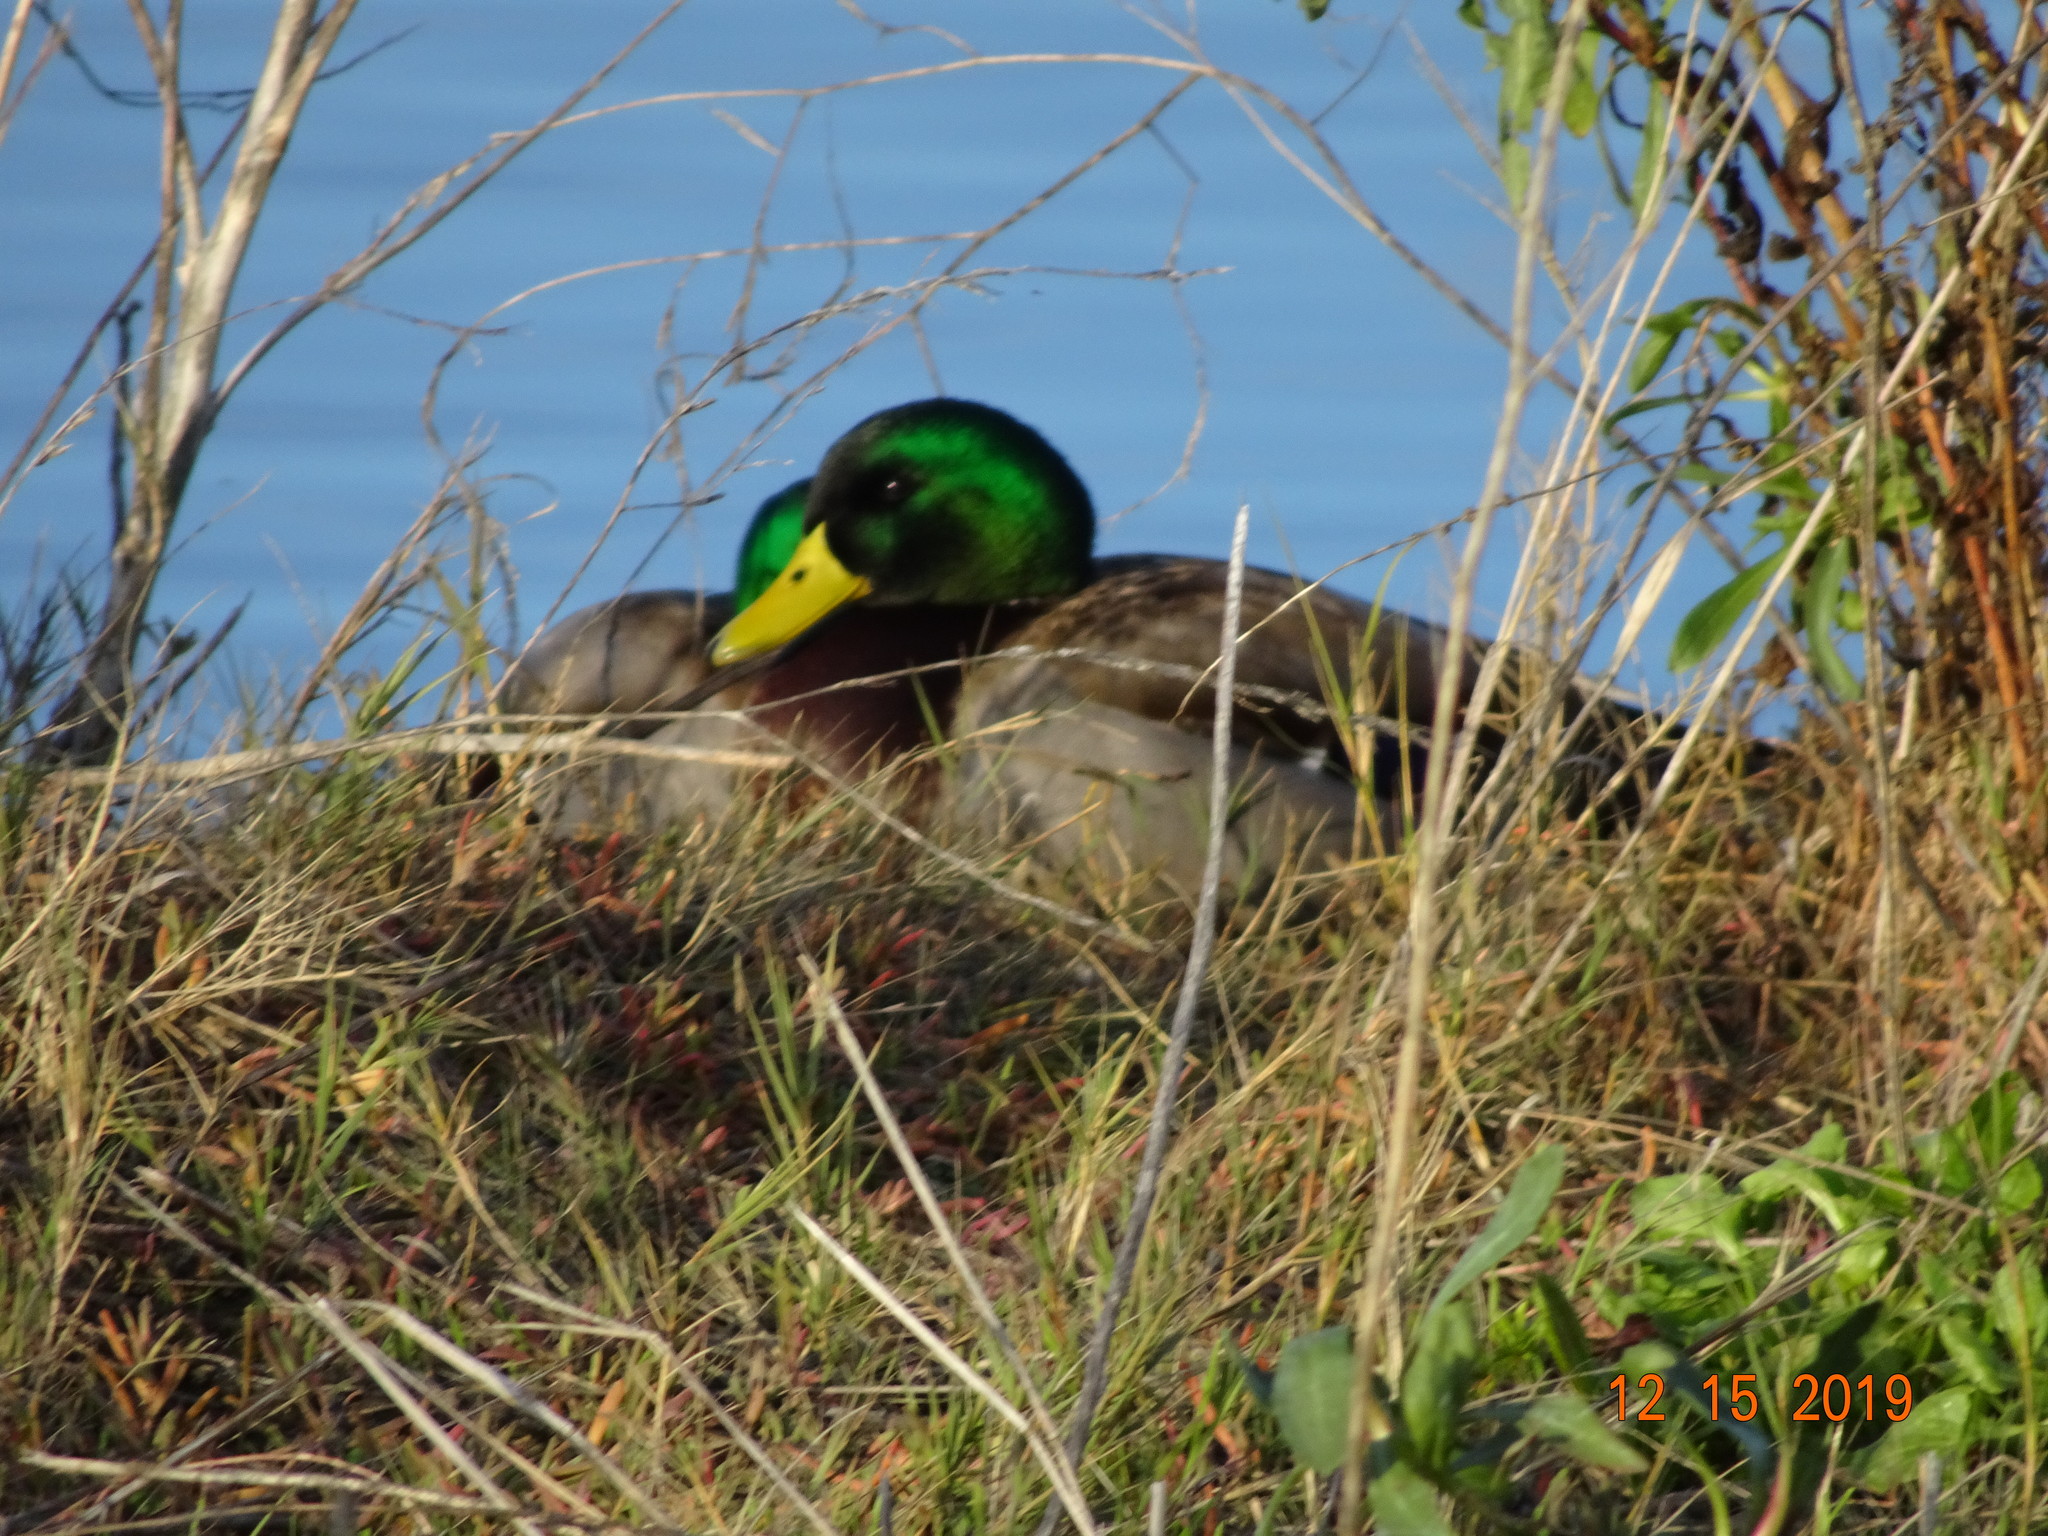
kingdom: Animalia
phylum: Chordata
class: Aves
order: Anseriformes
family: Anatidae
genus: Anas
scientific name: Anas platyrhynchos
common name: Mallard
